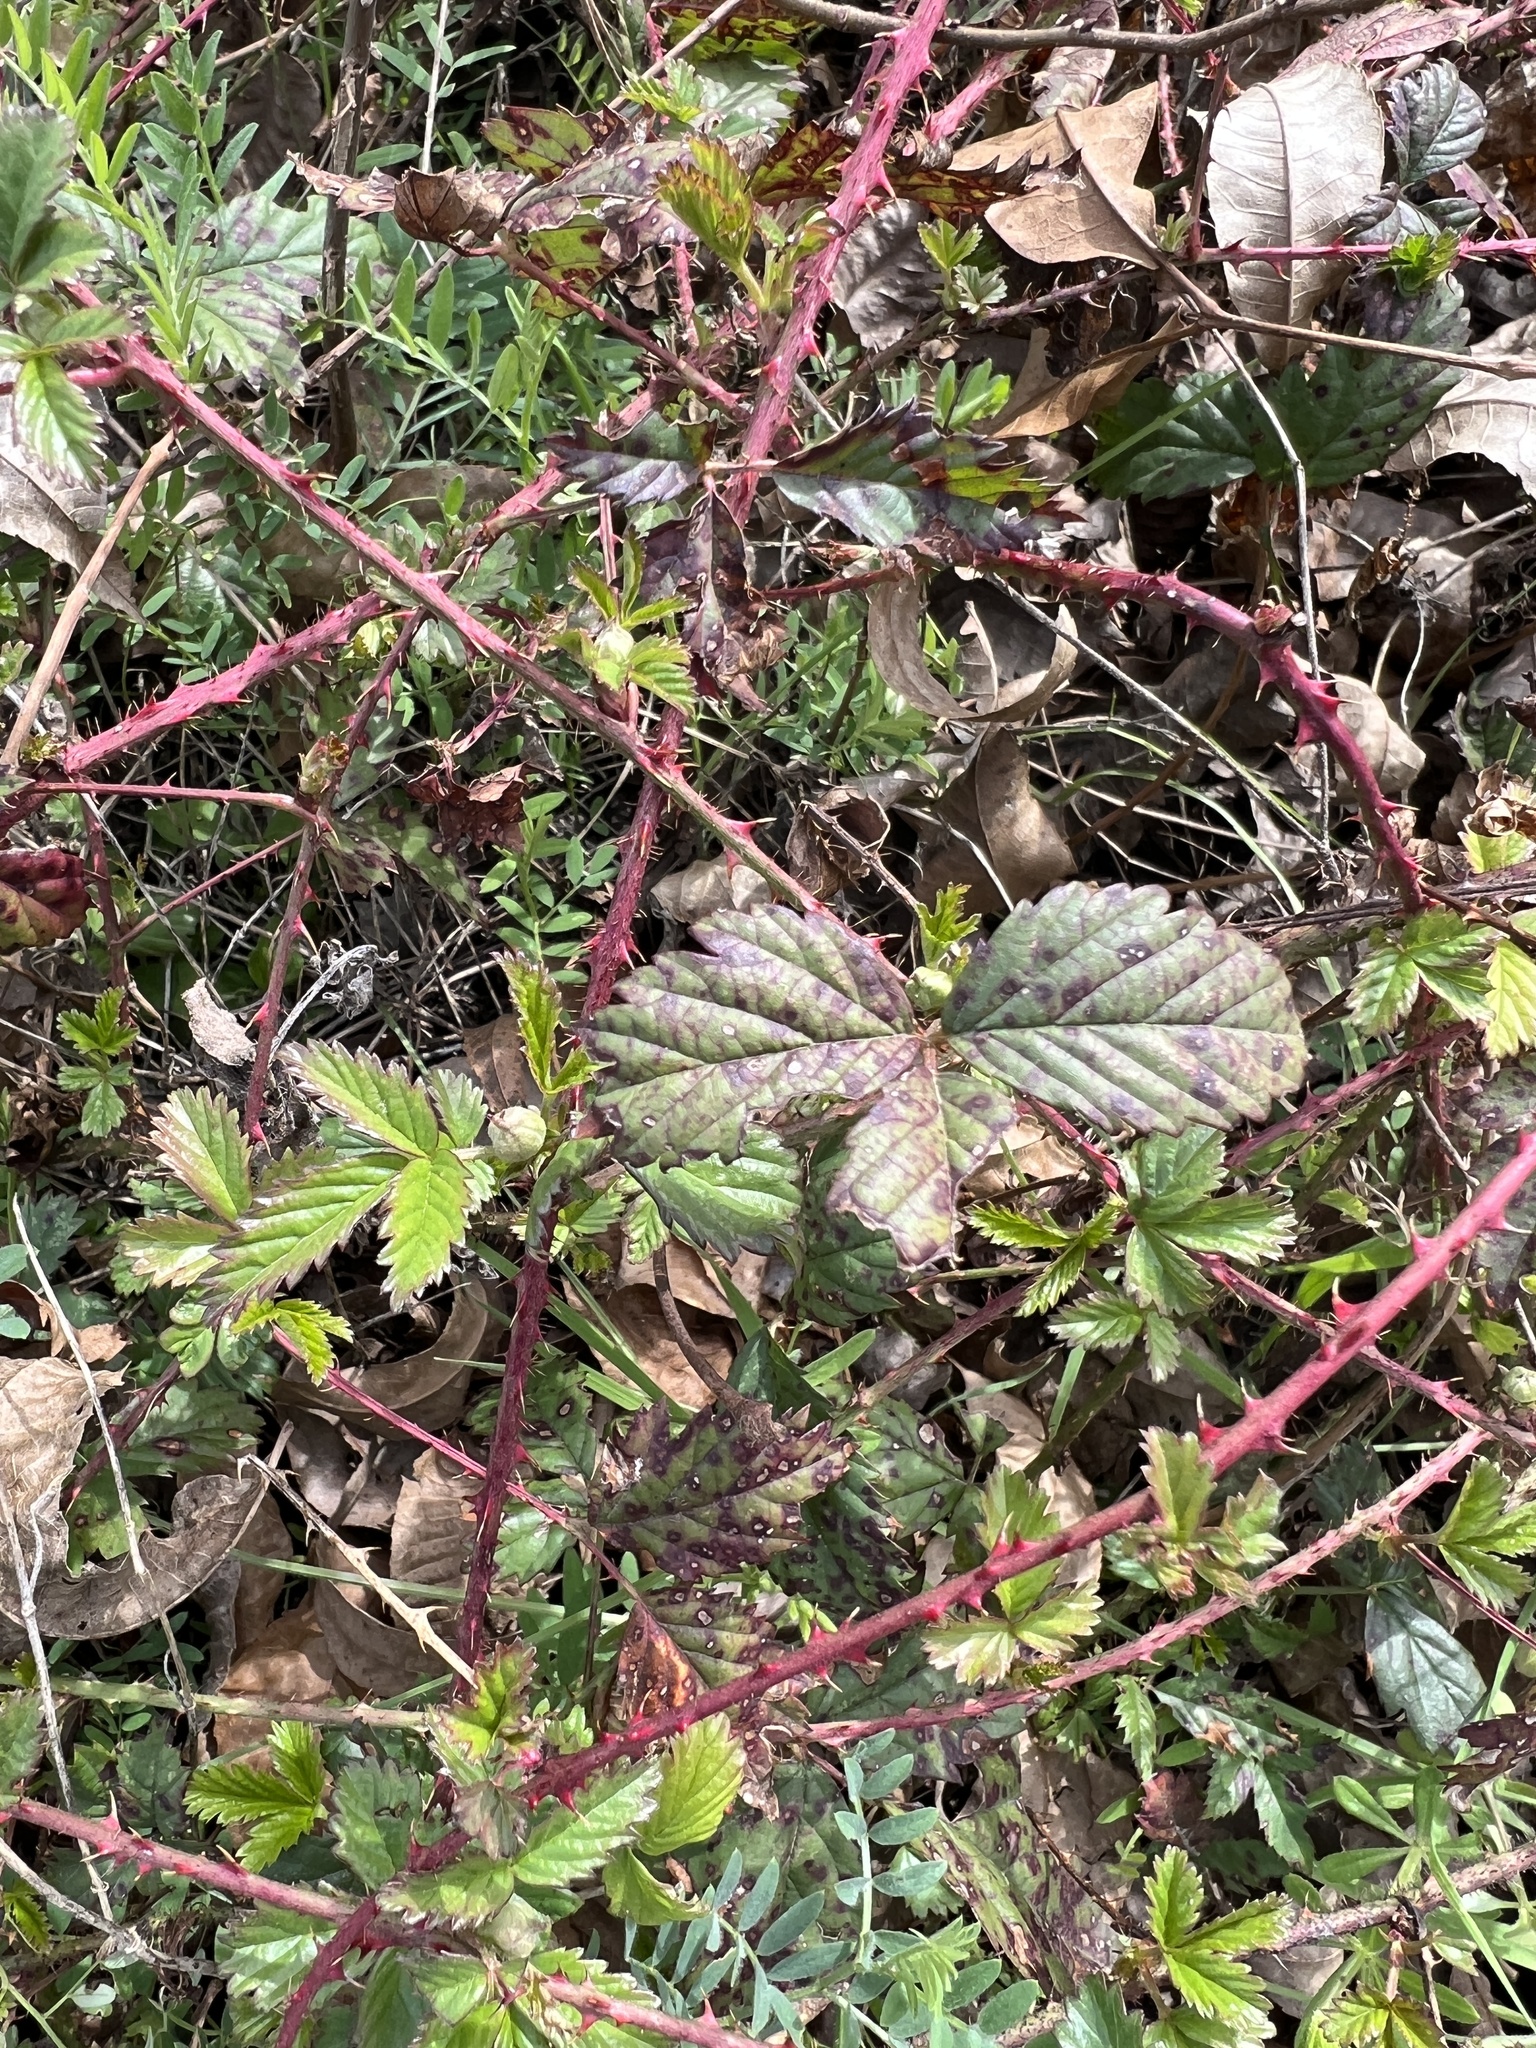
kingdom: Plantae
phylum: Tracheophyta
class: Magnoliopsida
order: Rosales
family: Rosaceae
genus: Rubus
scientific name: Rubus trivialis
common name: Southern dewberry
